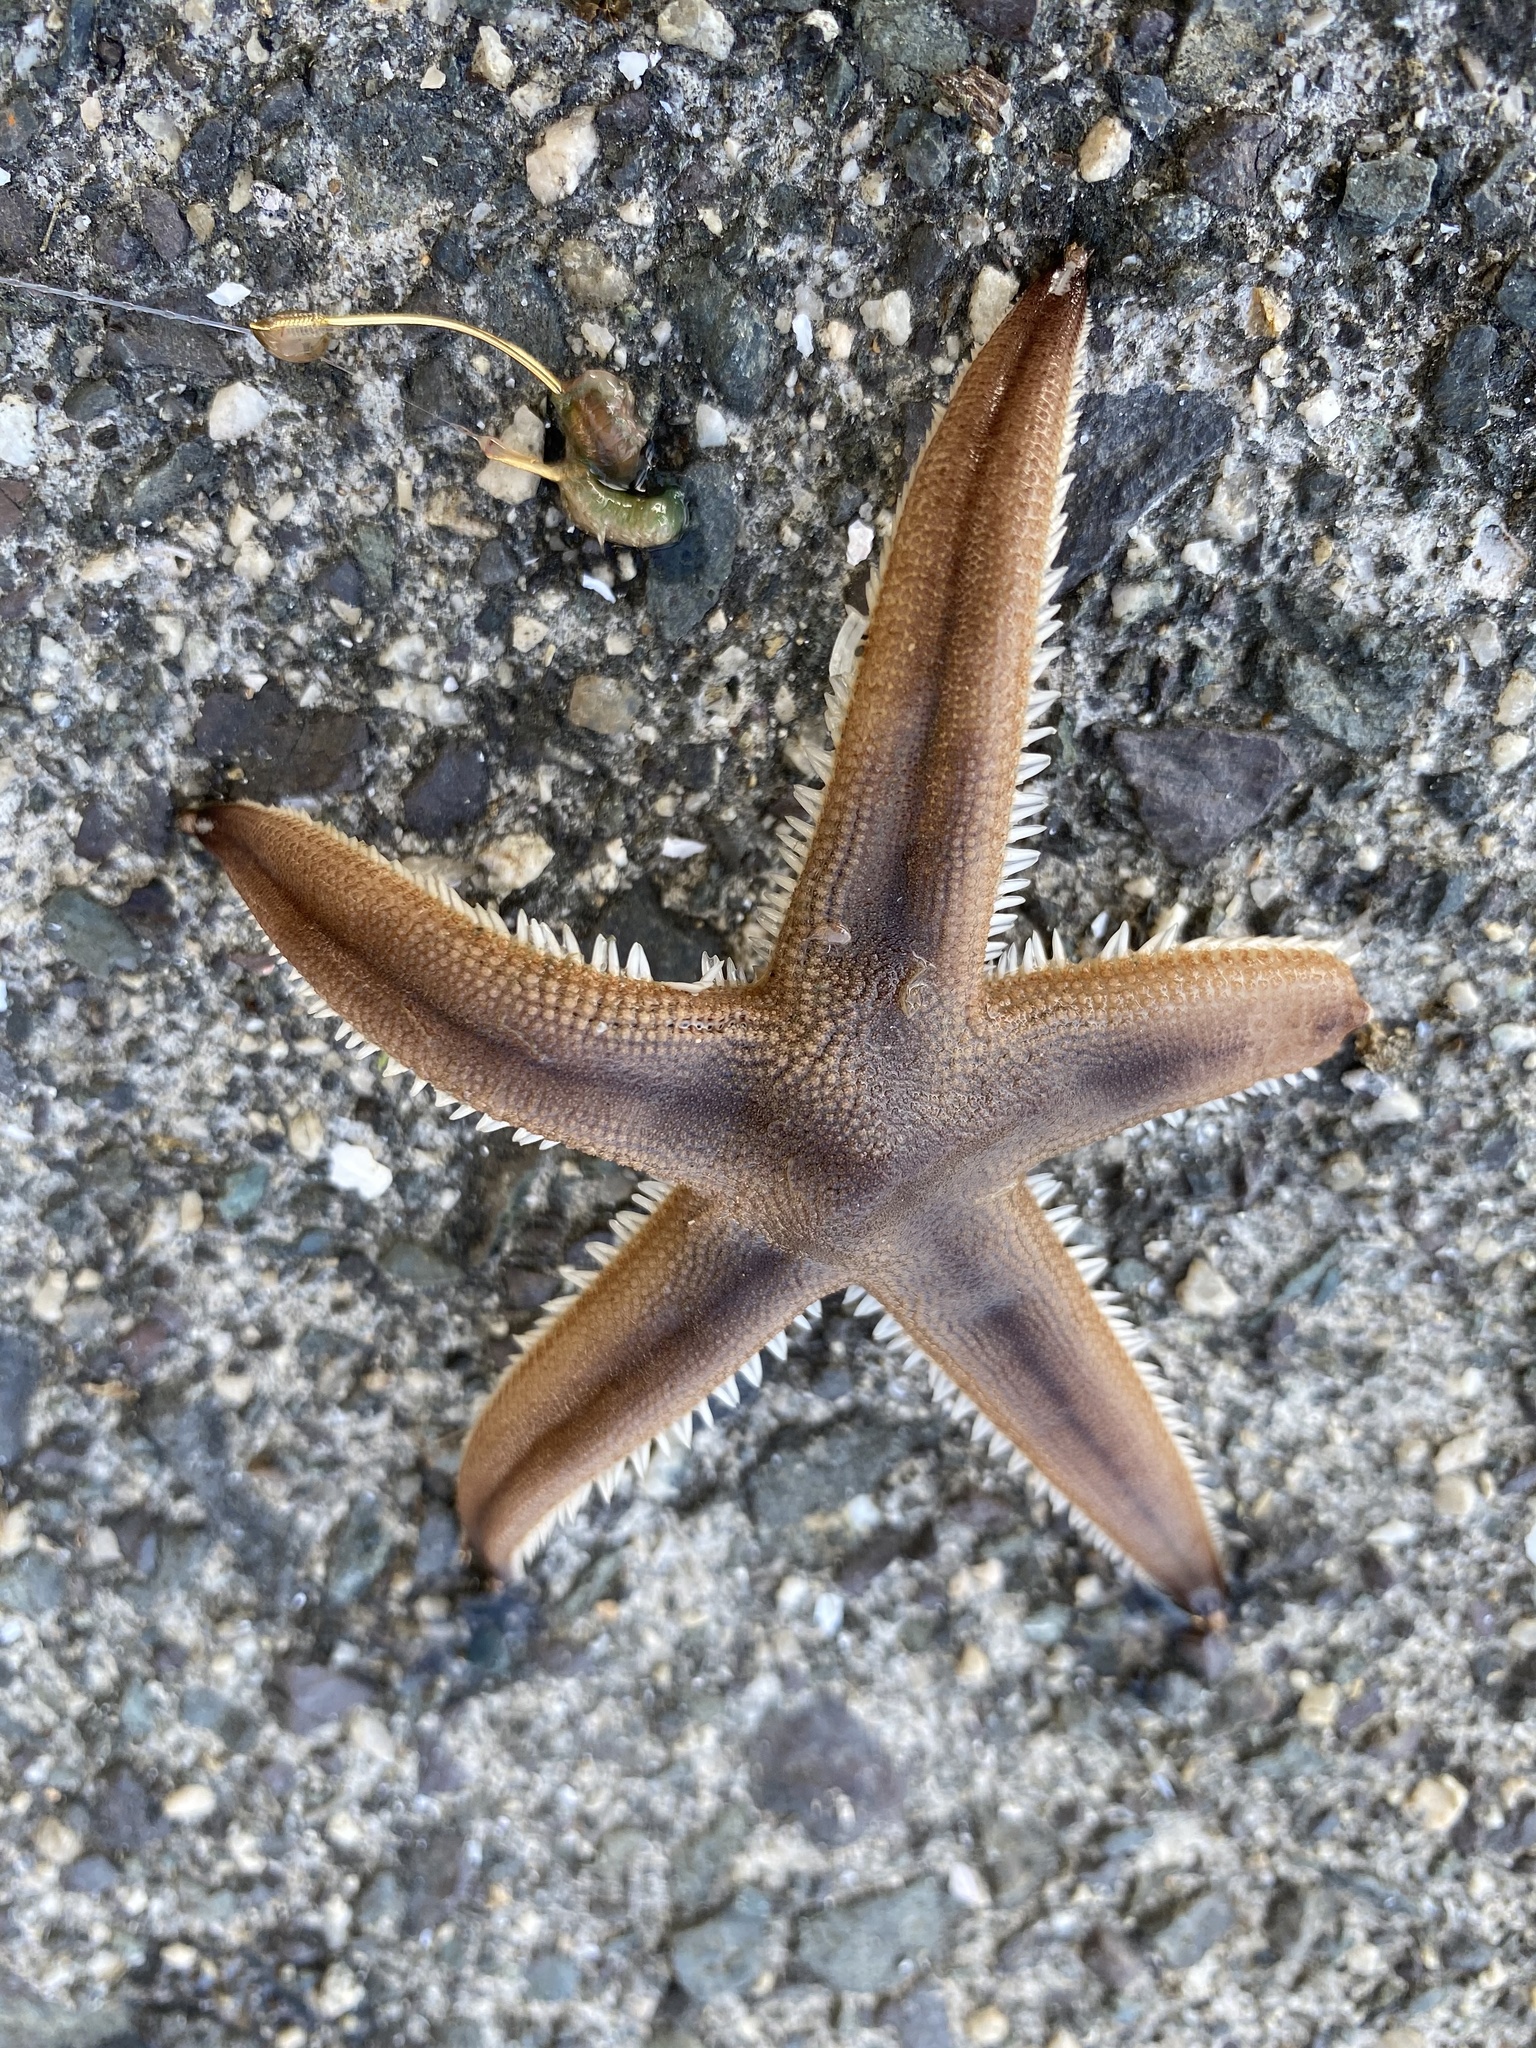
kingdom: Animalia
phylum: Echinodermata
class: Asteroidea
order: Paxillosida
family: Luidiidae
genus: Luidia
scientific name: Luidia quinaria
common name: Spiny sand seastar
